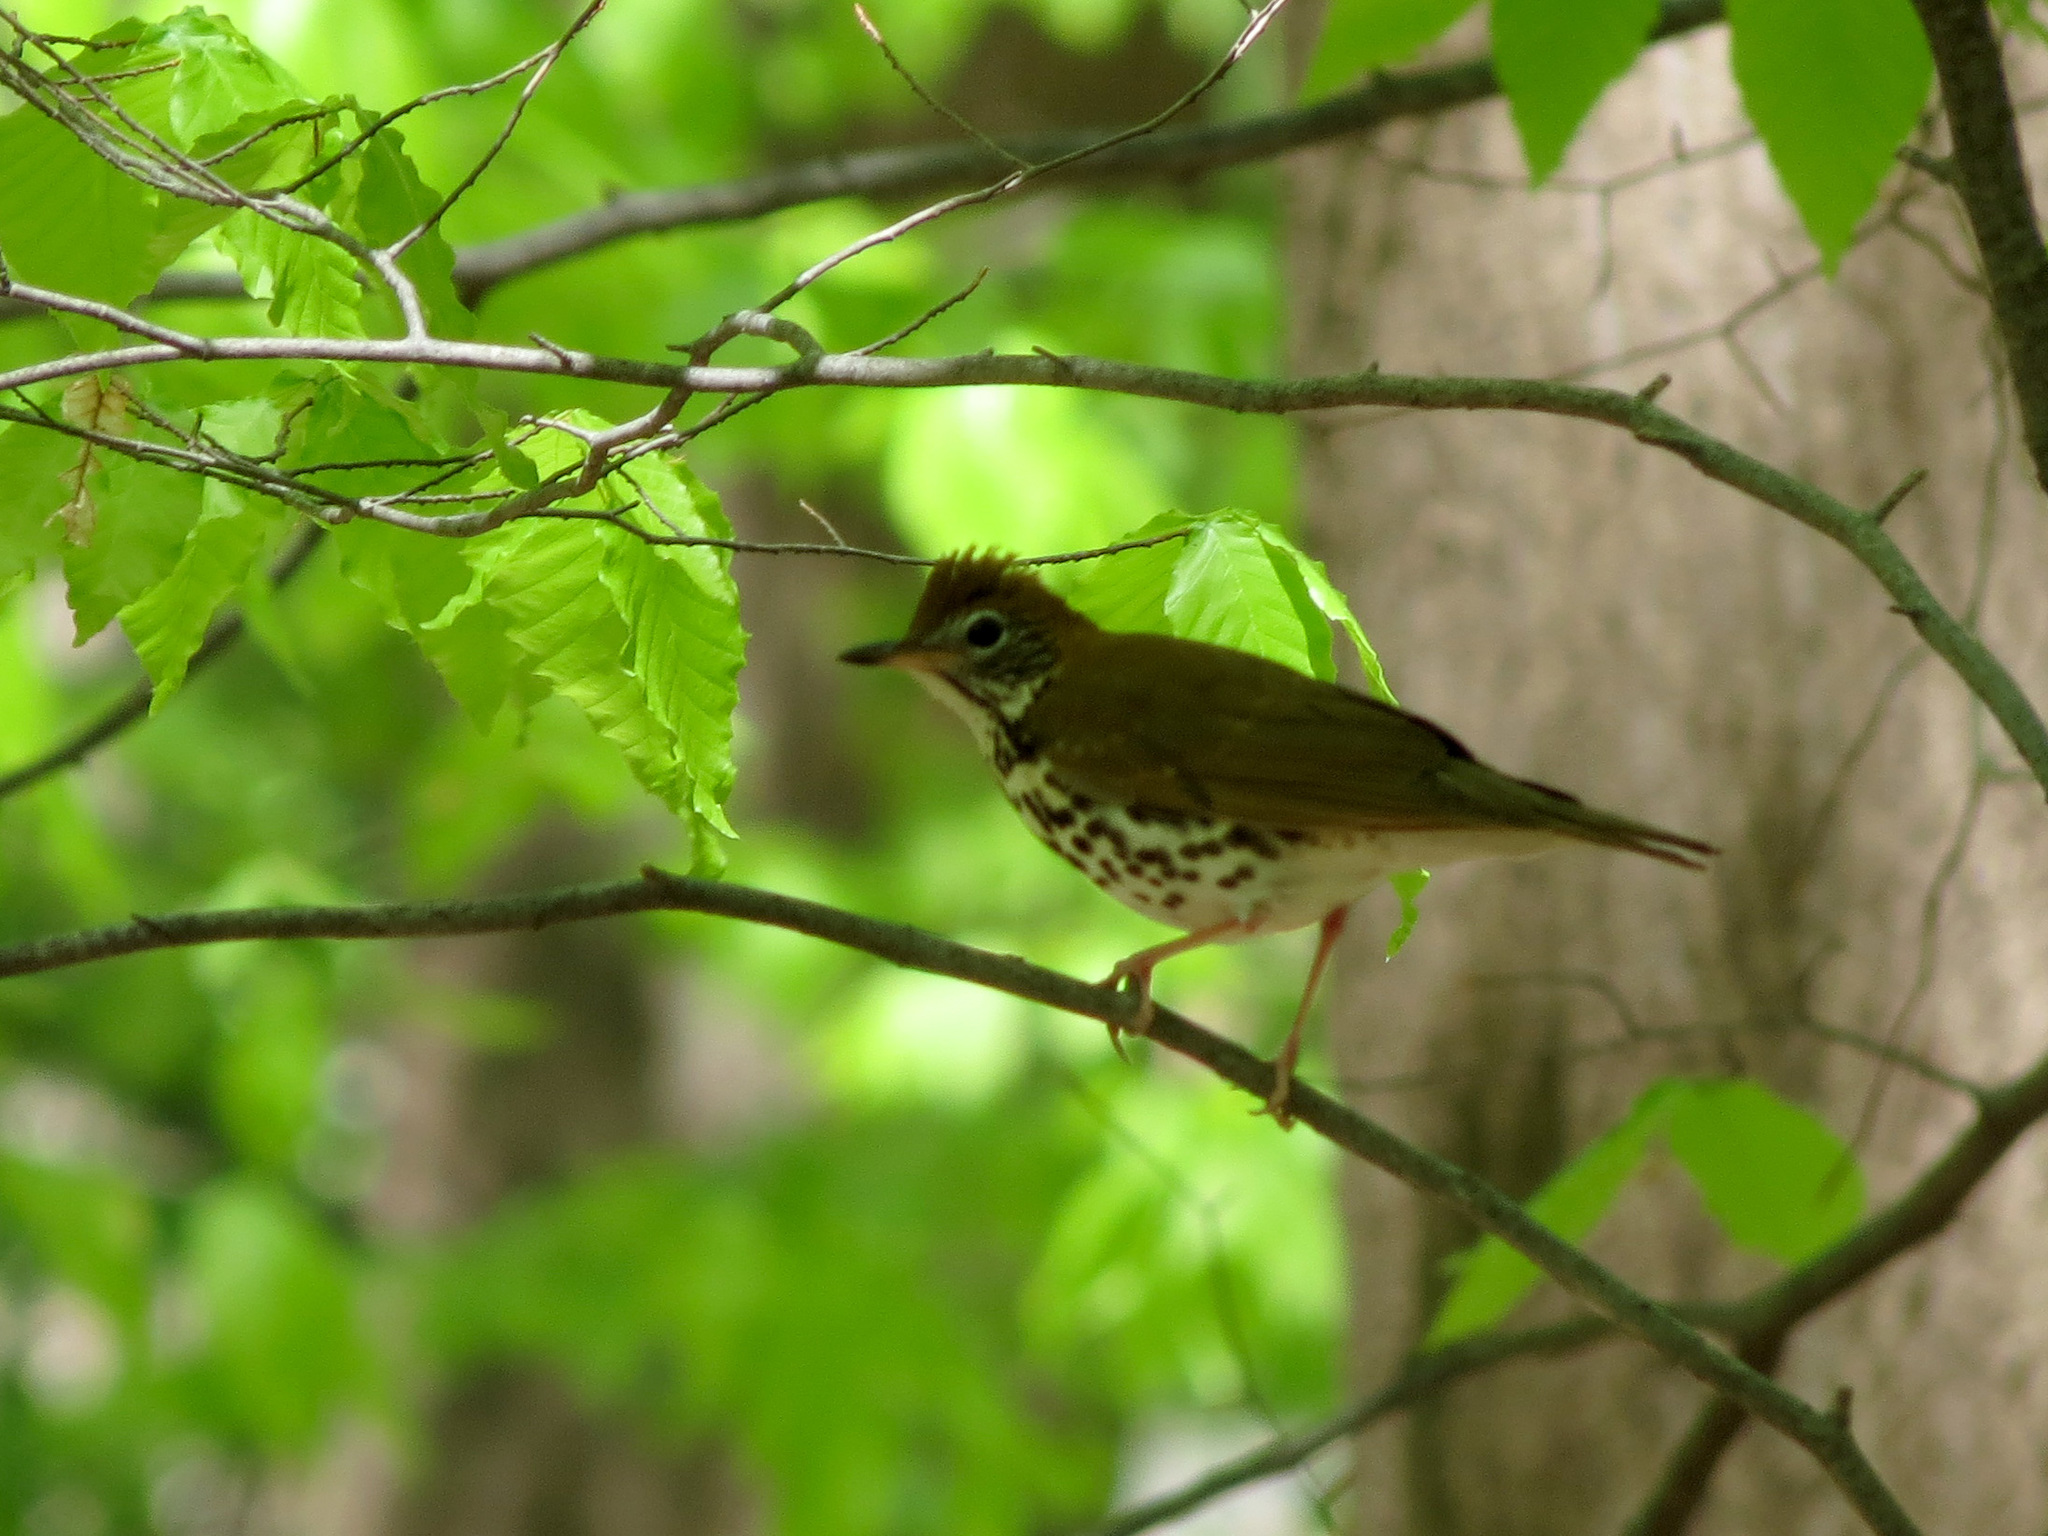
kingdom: Animalia
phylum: Chordata
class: Aves
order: Passeriformes
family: Turdidae
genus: Hylocichla
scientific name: Hylocichla mustelina
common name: Wood thrush
